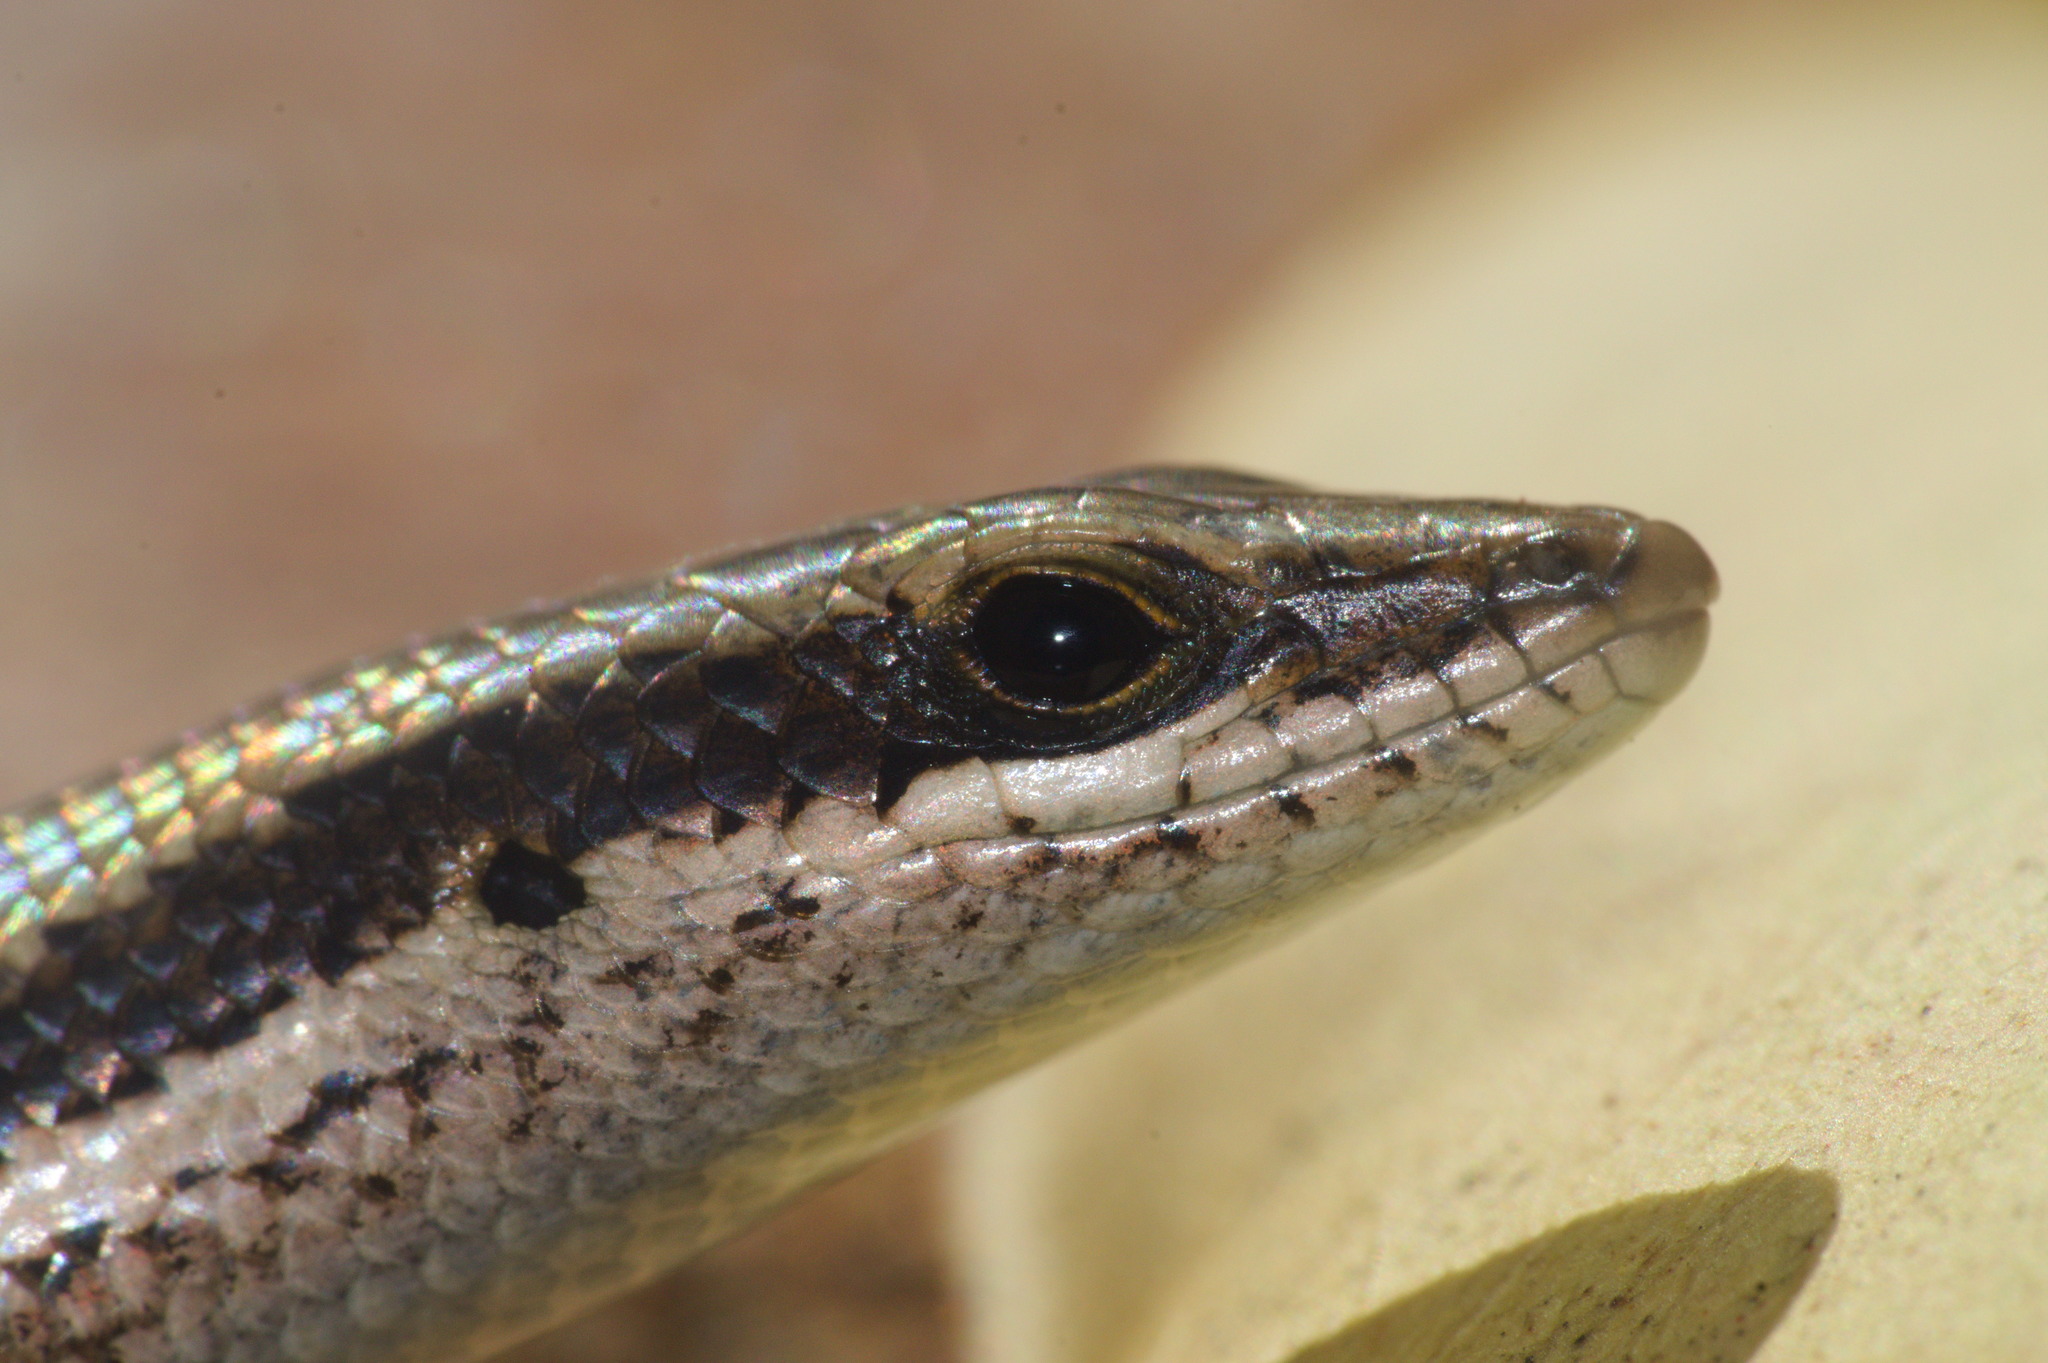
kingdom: Animalia
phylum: Chordata
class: Squamata
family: Scincidae
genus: Notomabuya
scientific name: Notomabuya frenata
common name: Cope's mabuya
